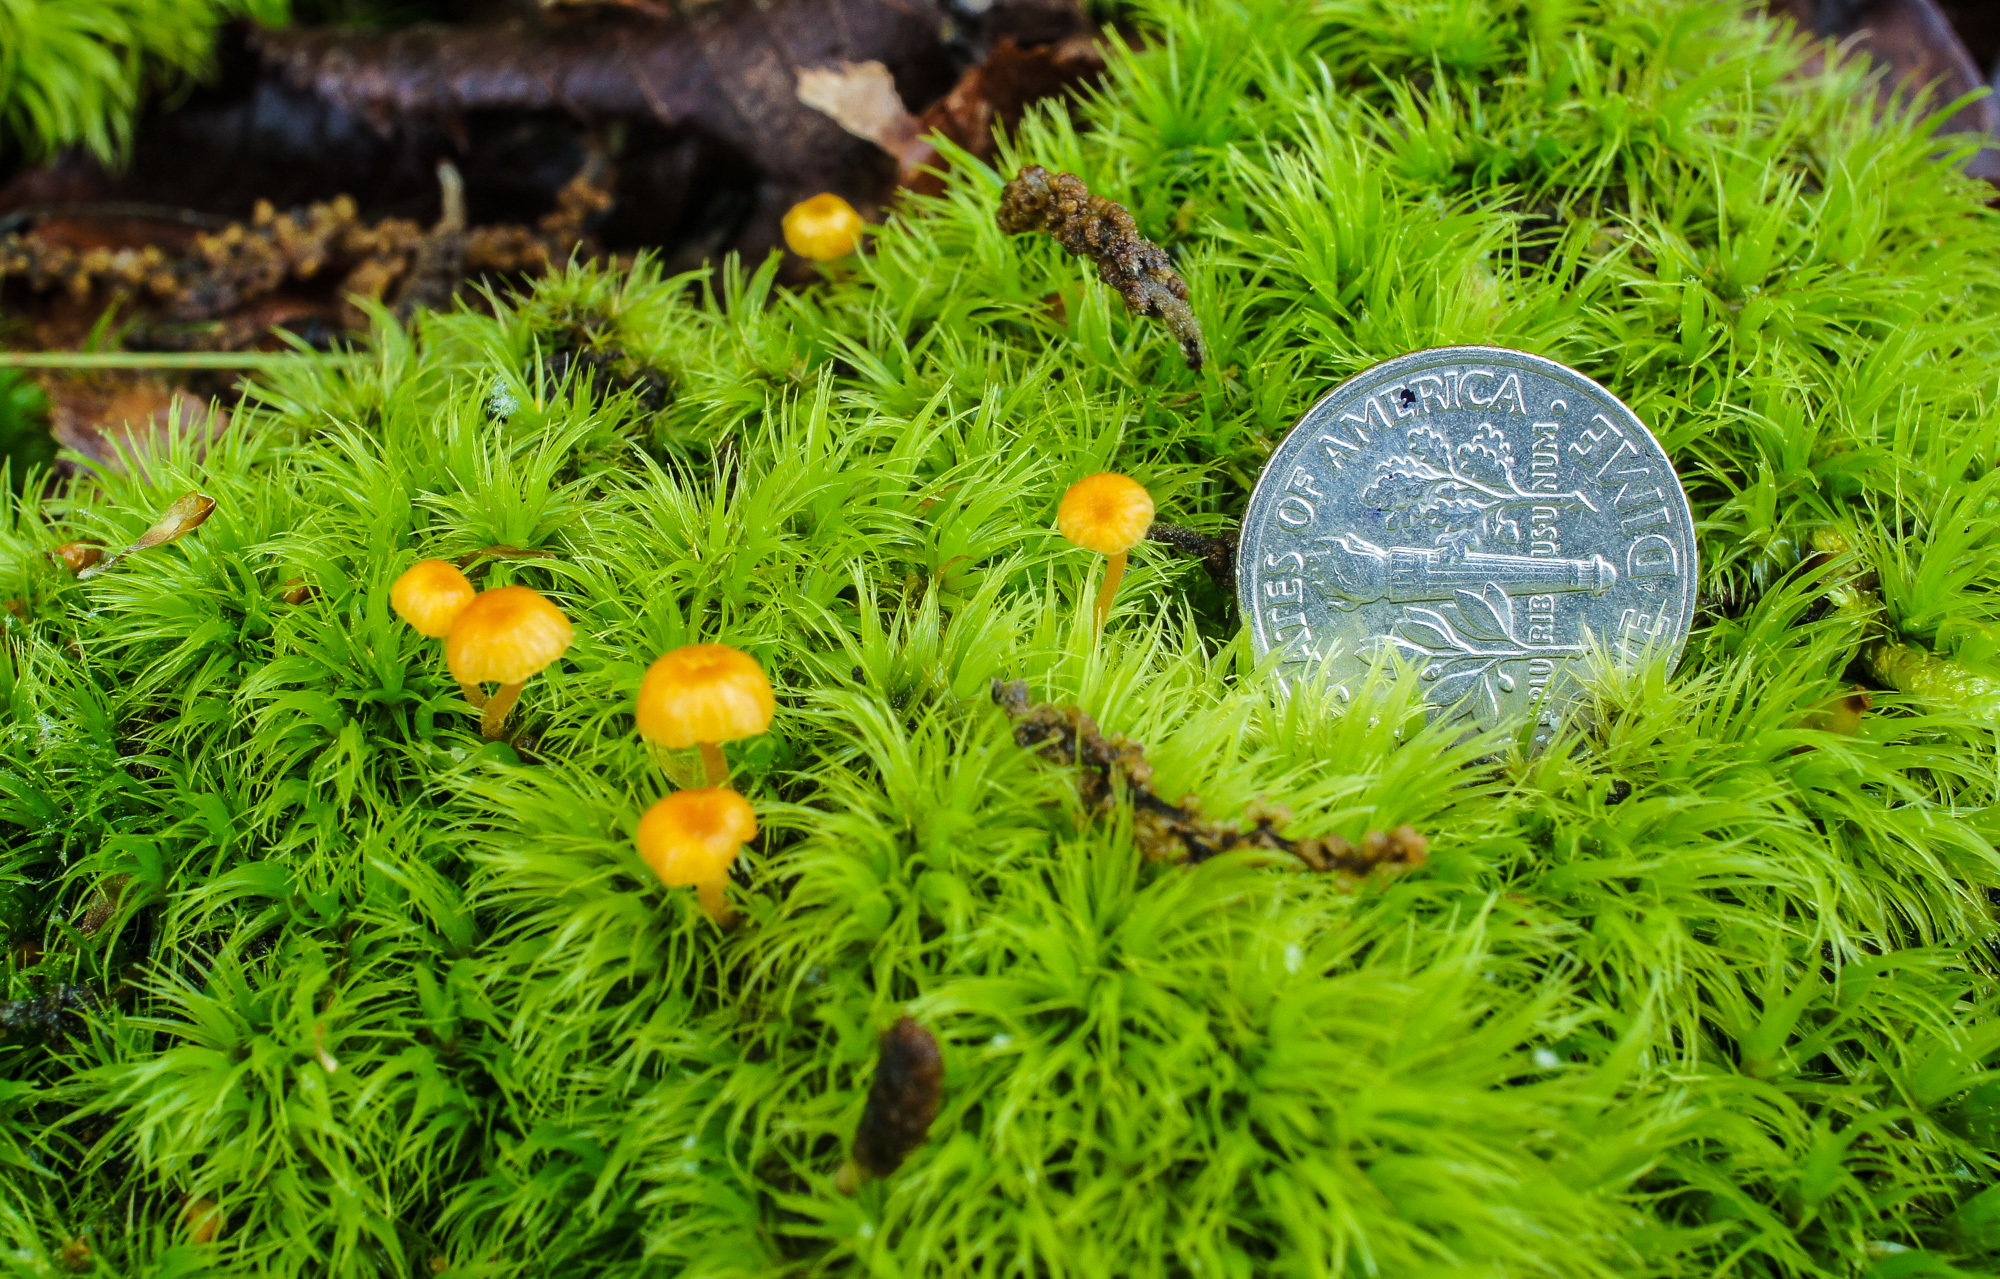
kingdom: Fungi
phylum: Basidiomycota
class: Agaricomycetes
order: Hymenochaetales
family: Rickenellaceae
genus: Rickenella
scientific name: Rickenella fibula
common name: Orange mosscap
